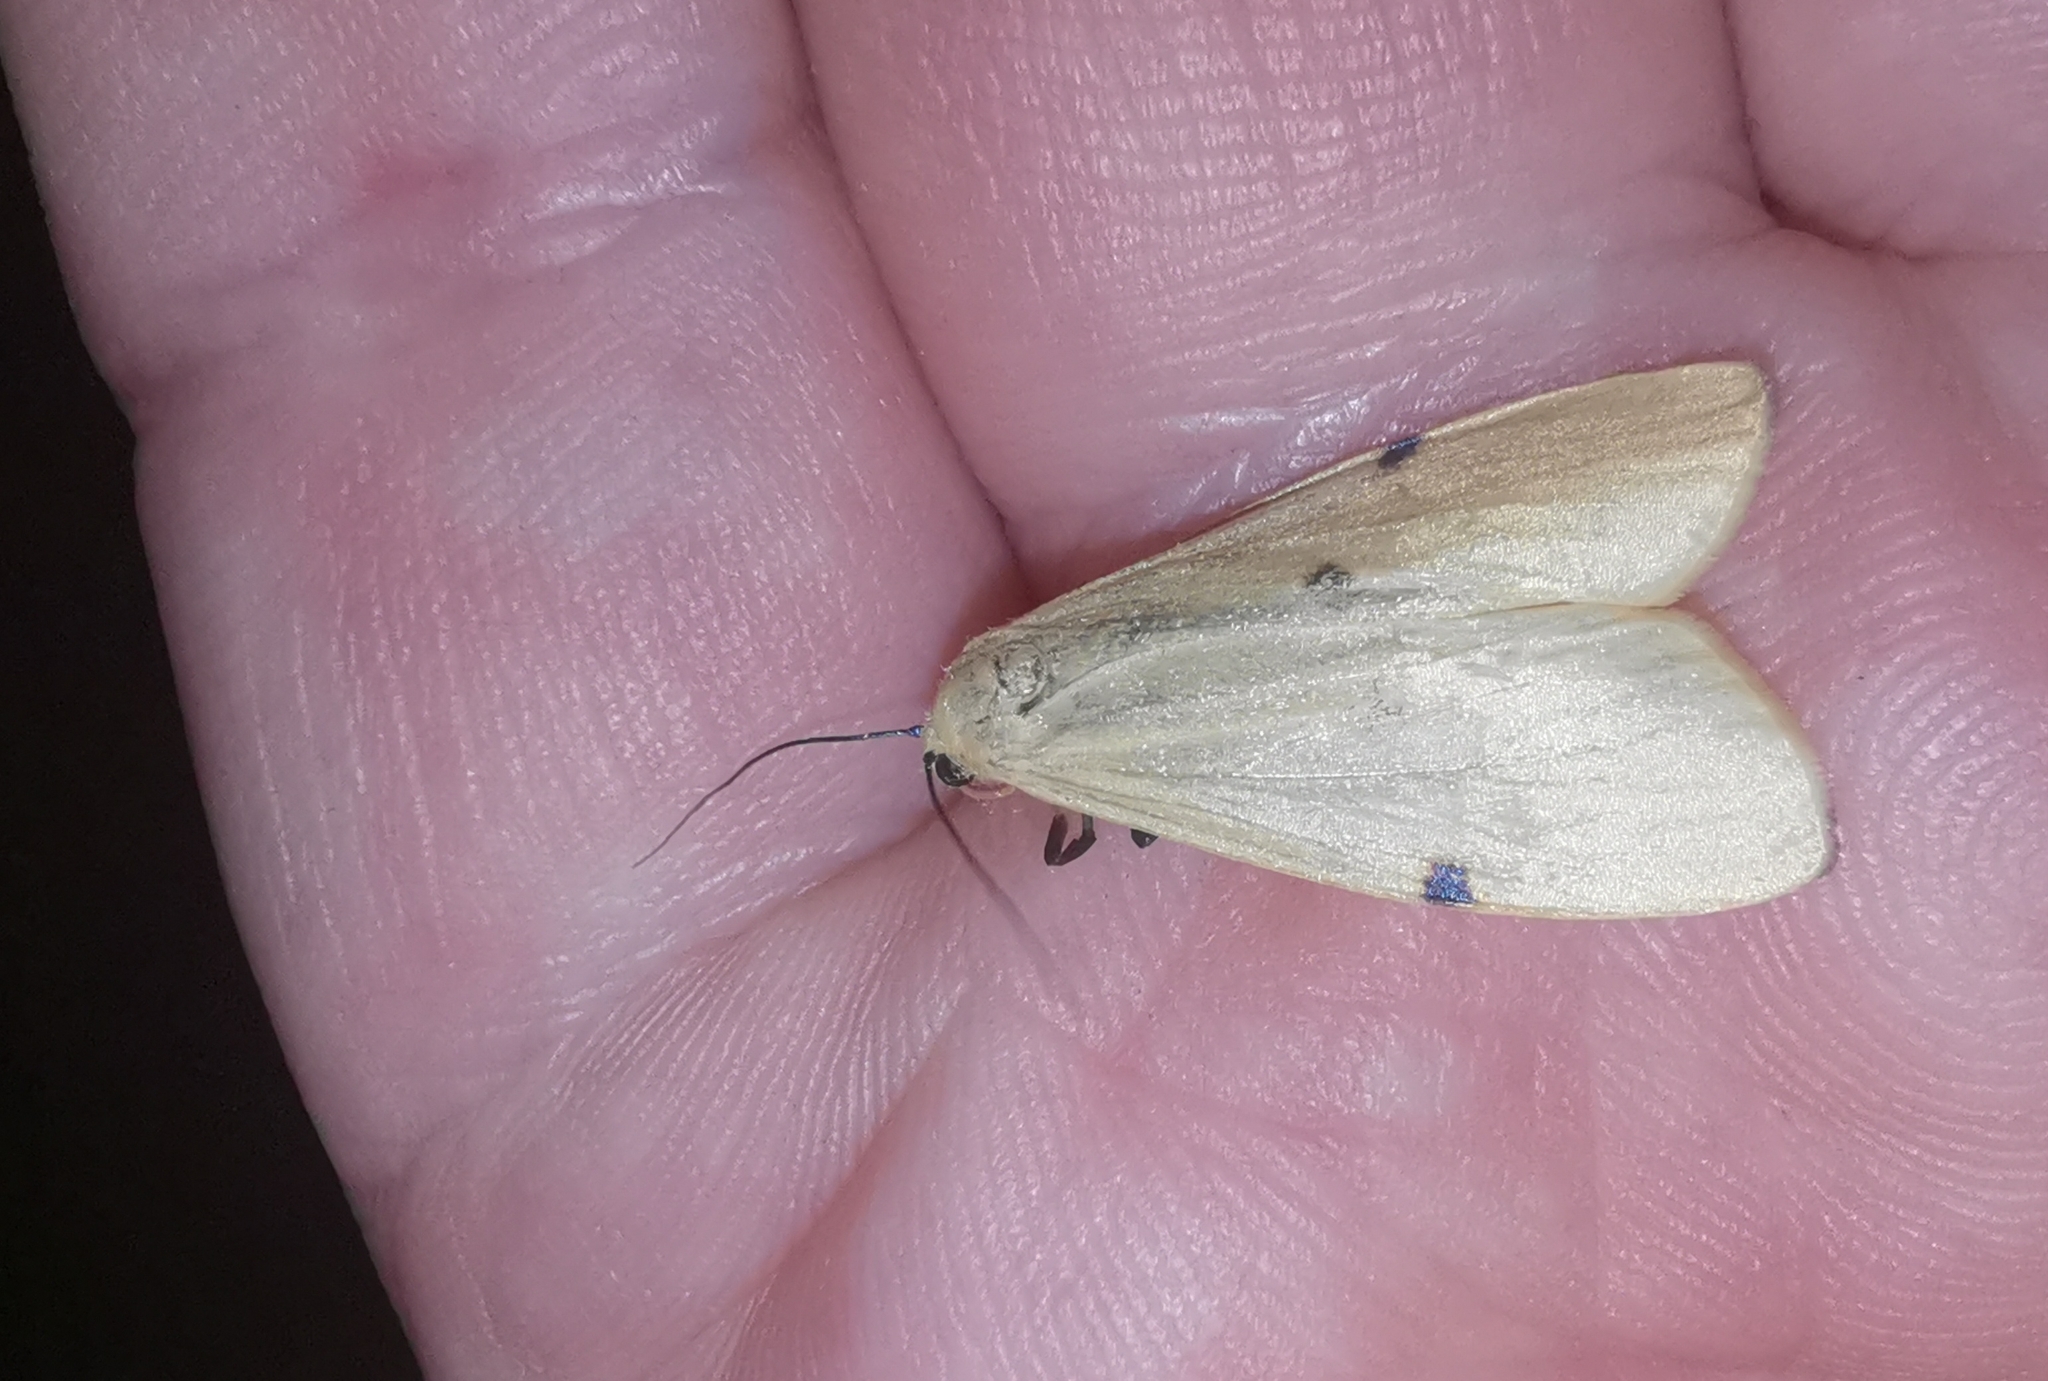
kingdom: Animalia
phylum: Arthropoda
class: Insecta
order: Lepidoptera
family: Erebidae
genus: Lithosia
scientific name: Lithosia quadra
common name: Four-spotted footman
